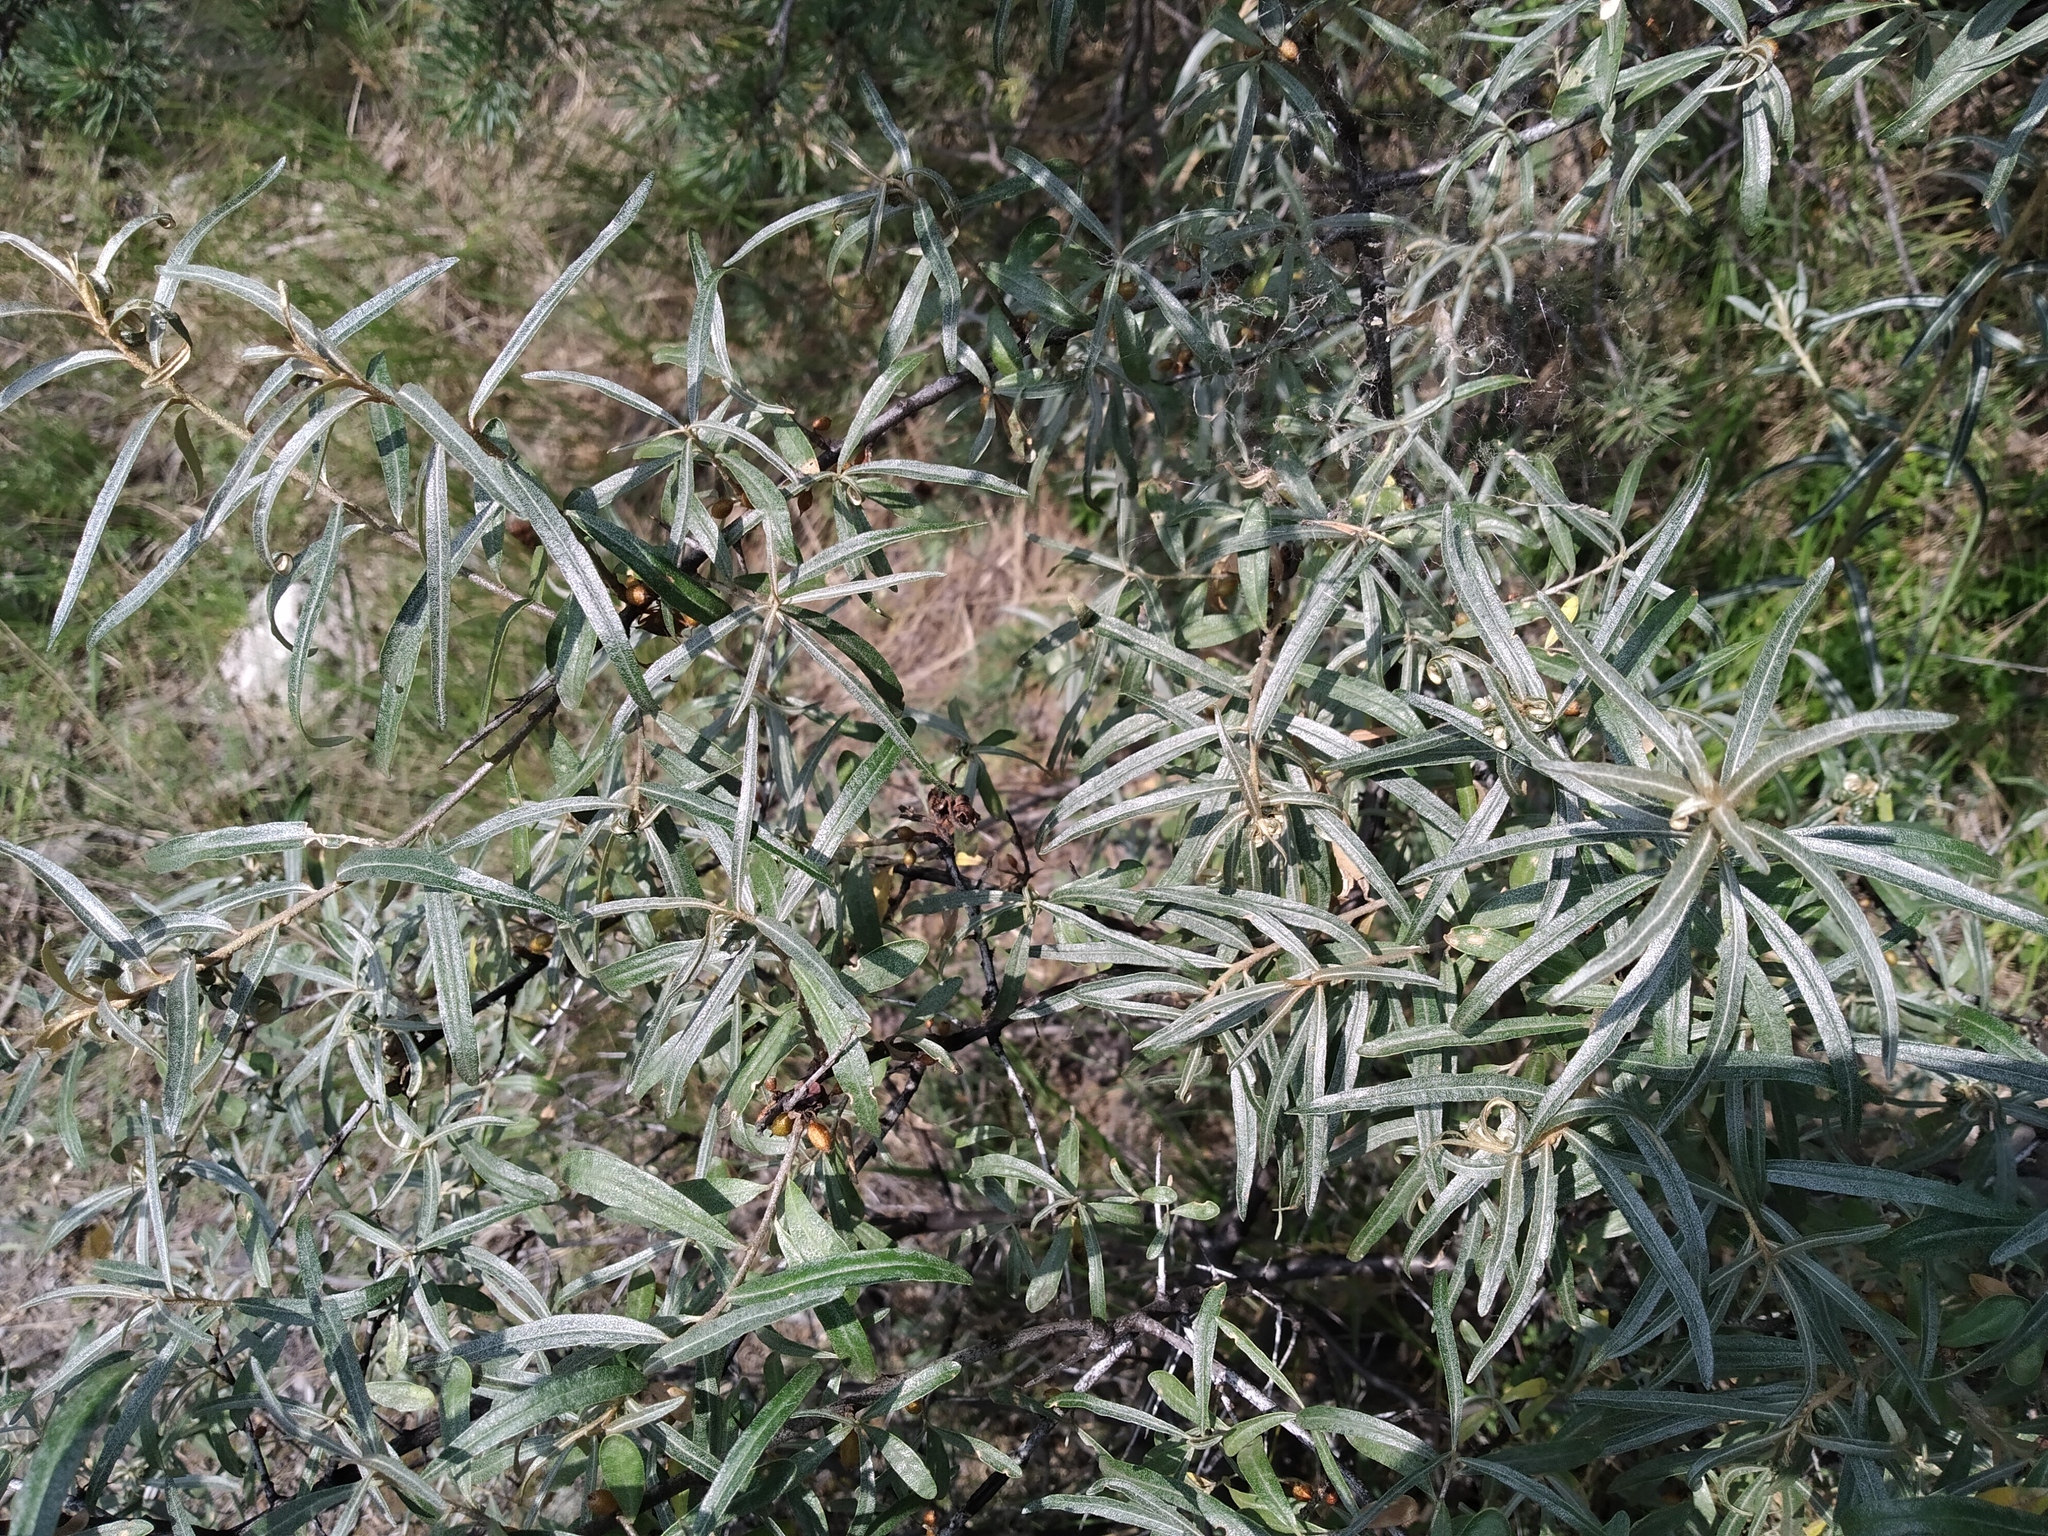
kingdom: Plantae
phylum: Tracheophyta
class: Magnoliopsida
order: Rosales
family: Elaeagnaceae
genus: Hippophae
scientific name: Hippophae rhamnoides
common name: Sea-buckthorn
